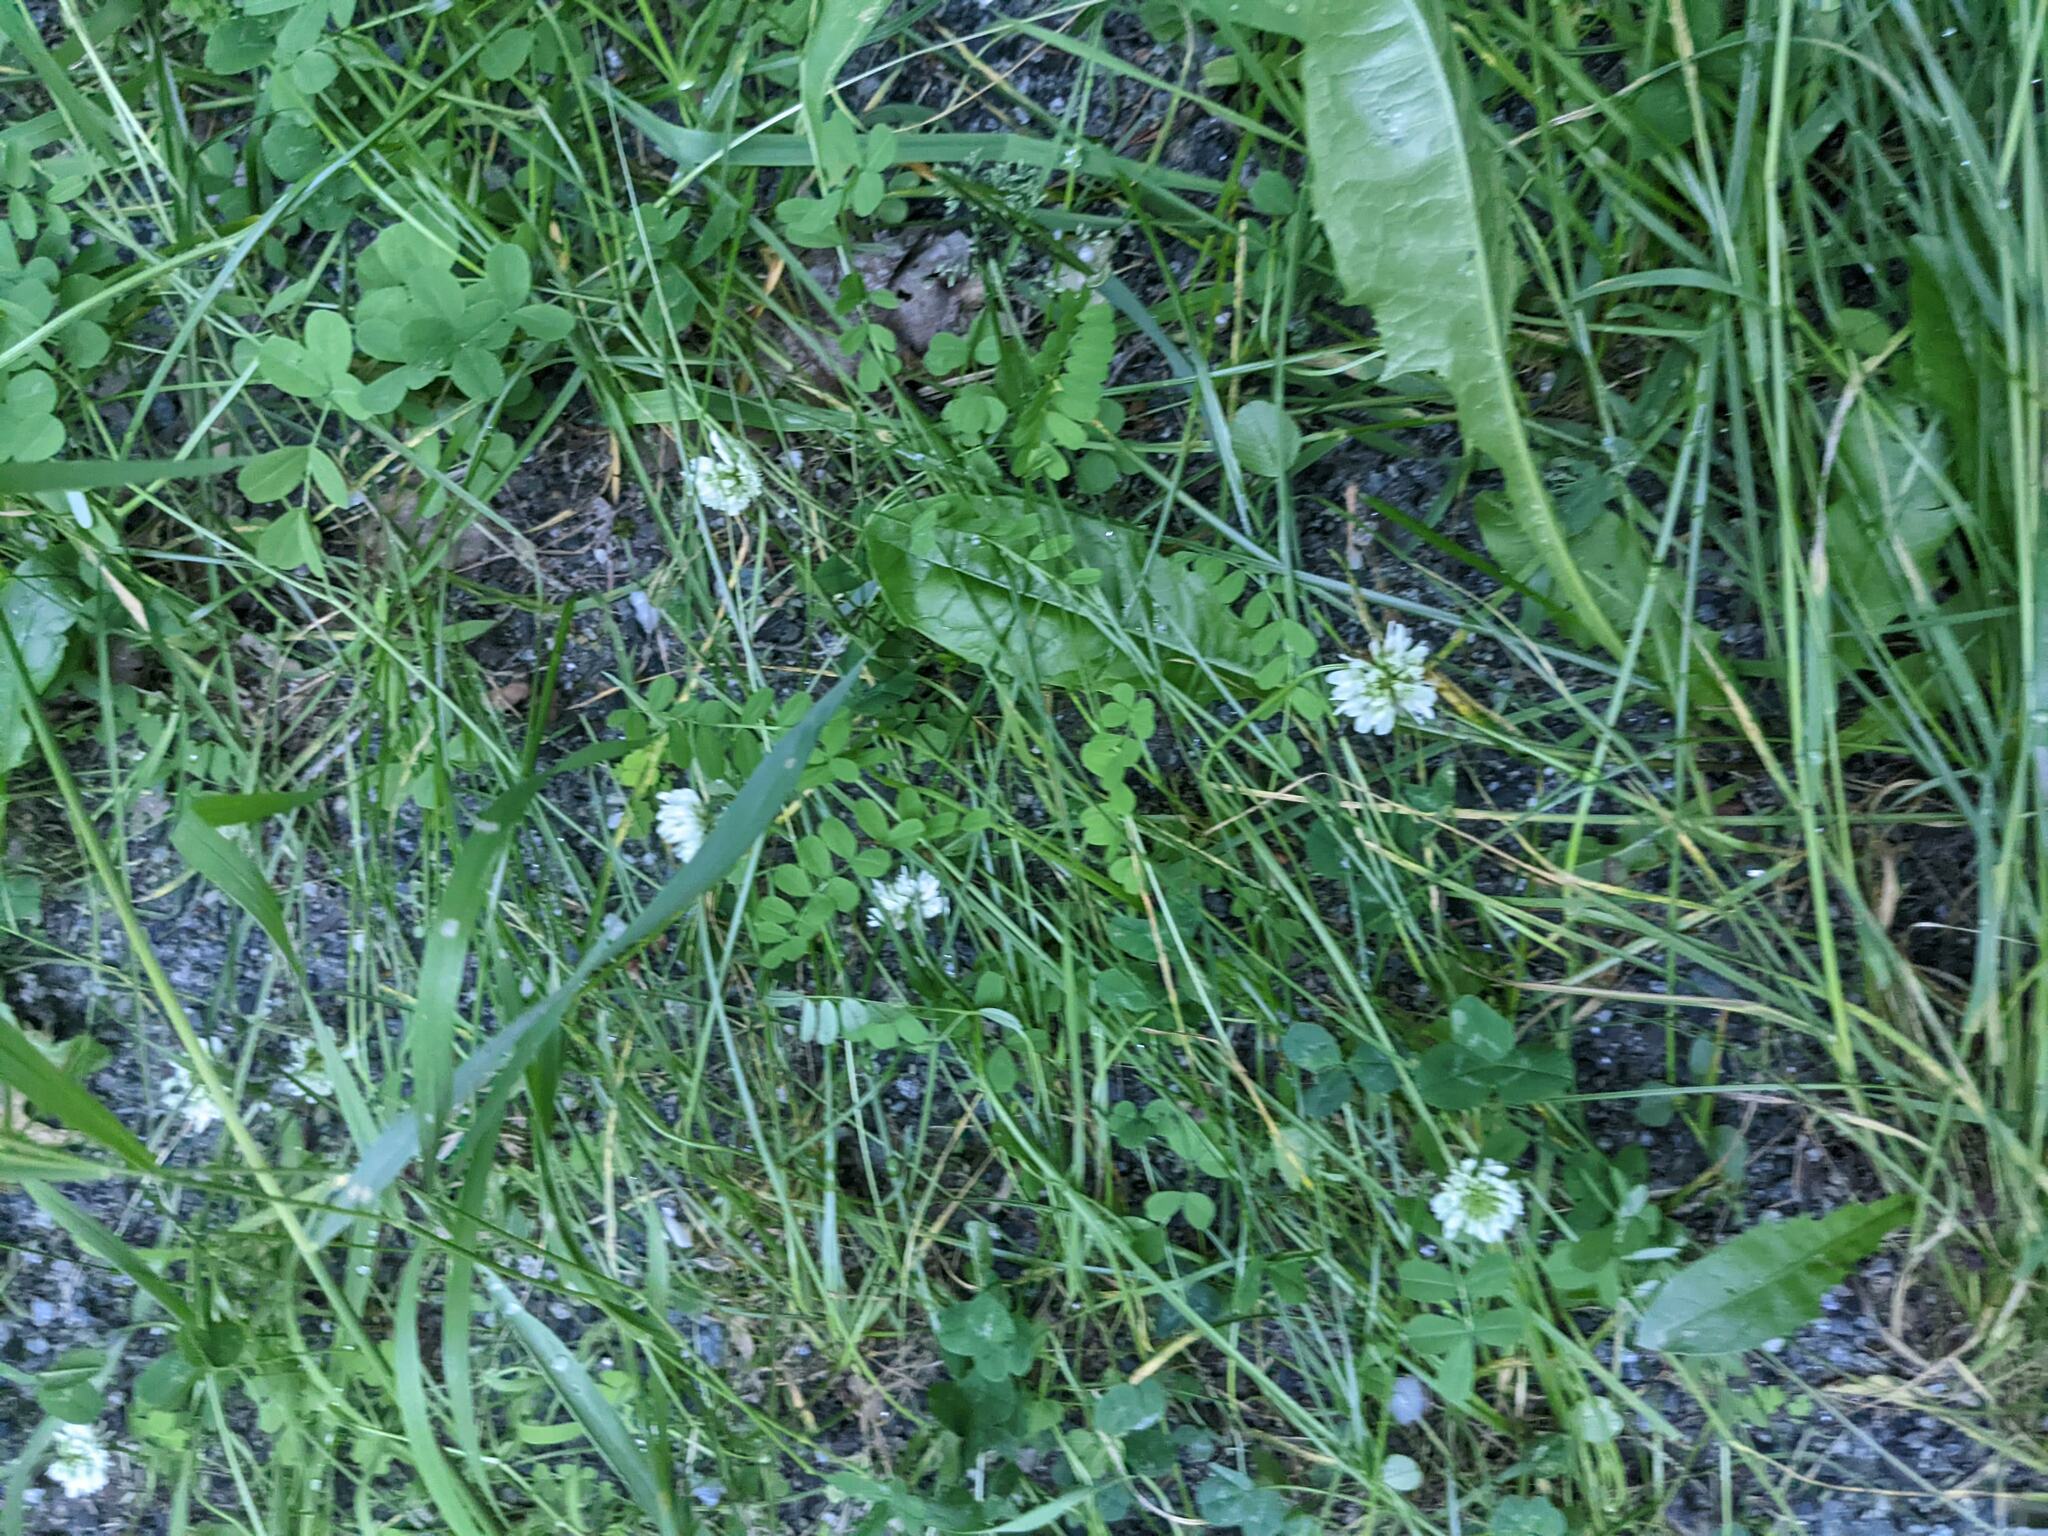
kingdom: Plantae
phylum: Tracheophyta
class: Magnoliopsida
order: Fabales
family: Fabaceae
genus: Trifolium
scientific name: Trifolium repens
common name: White clover
